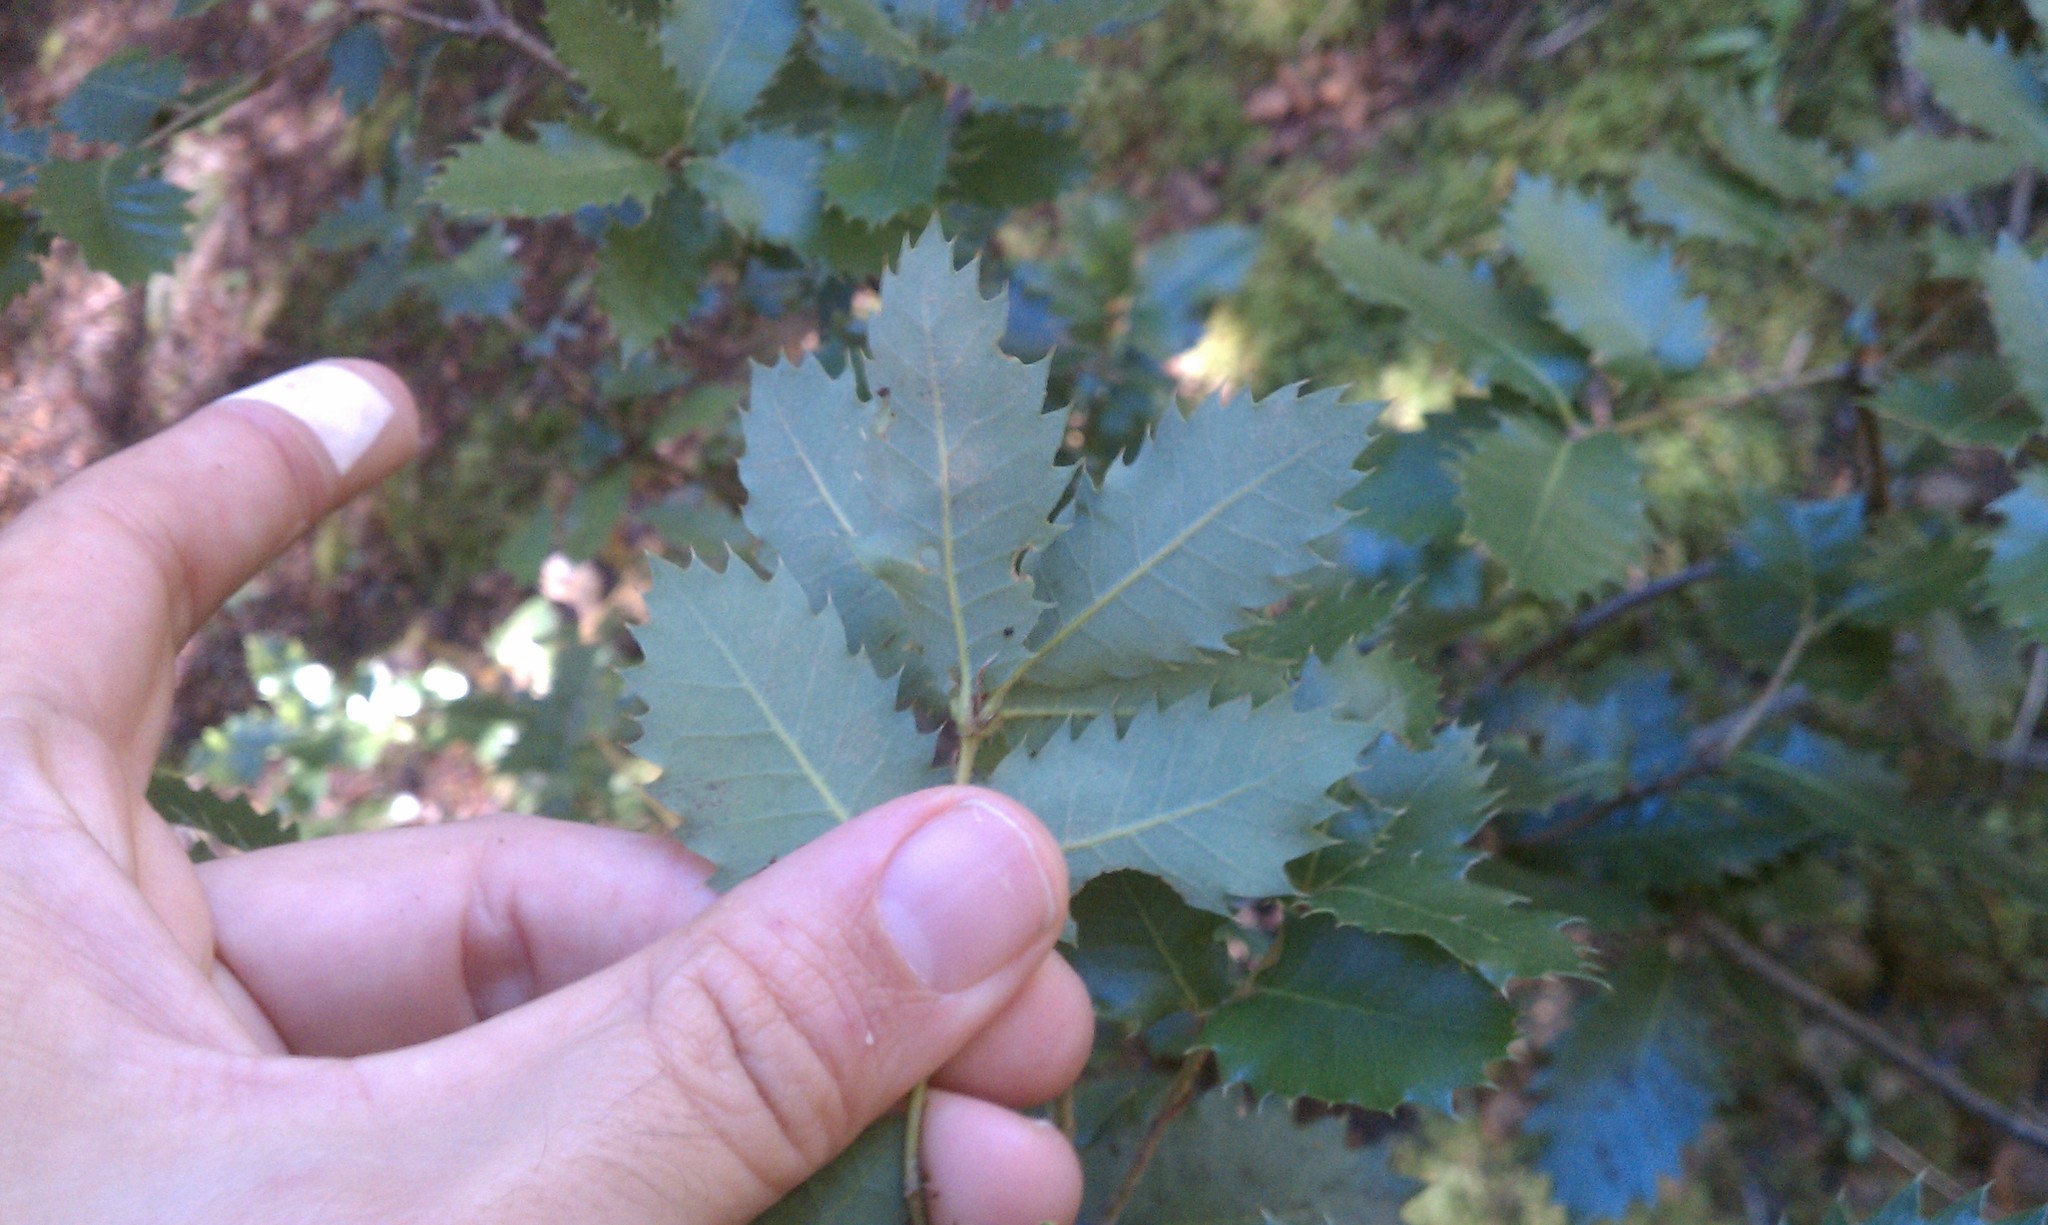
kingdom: Plantae
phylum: Tracheophyta
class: Magnoliopsida
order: Fagales
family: Fagaceae
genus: Quercus
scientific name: Quercus chrysolepis
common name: Canyon live oak
